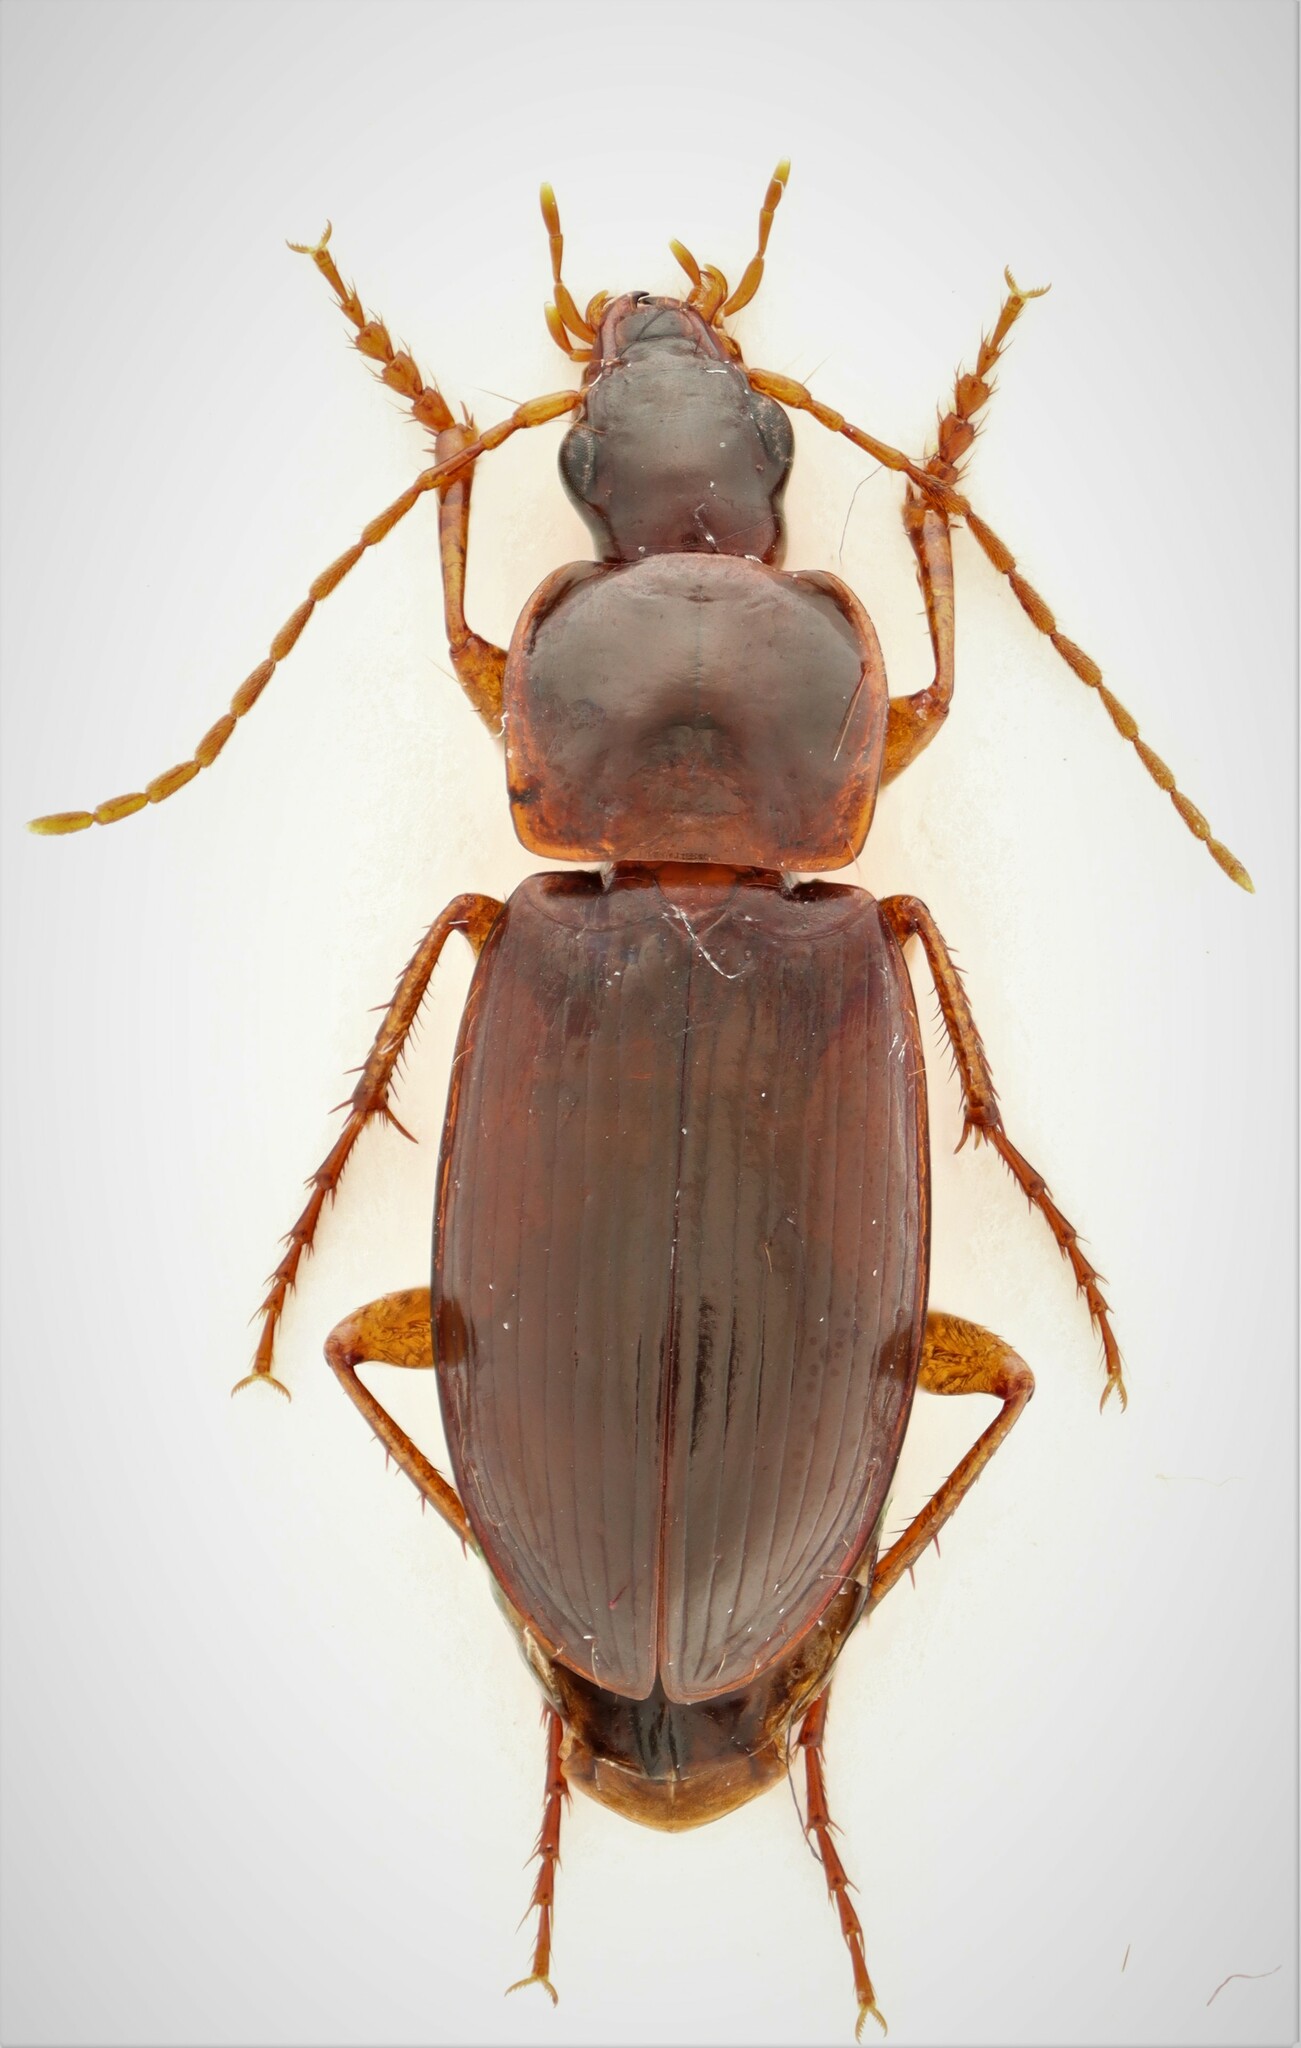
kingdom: Animalia
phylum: Arthropoda
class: Insecta
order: Coleoptera
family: Carabidae
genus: Calathus
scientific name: Calathus ingratus
